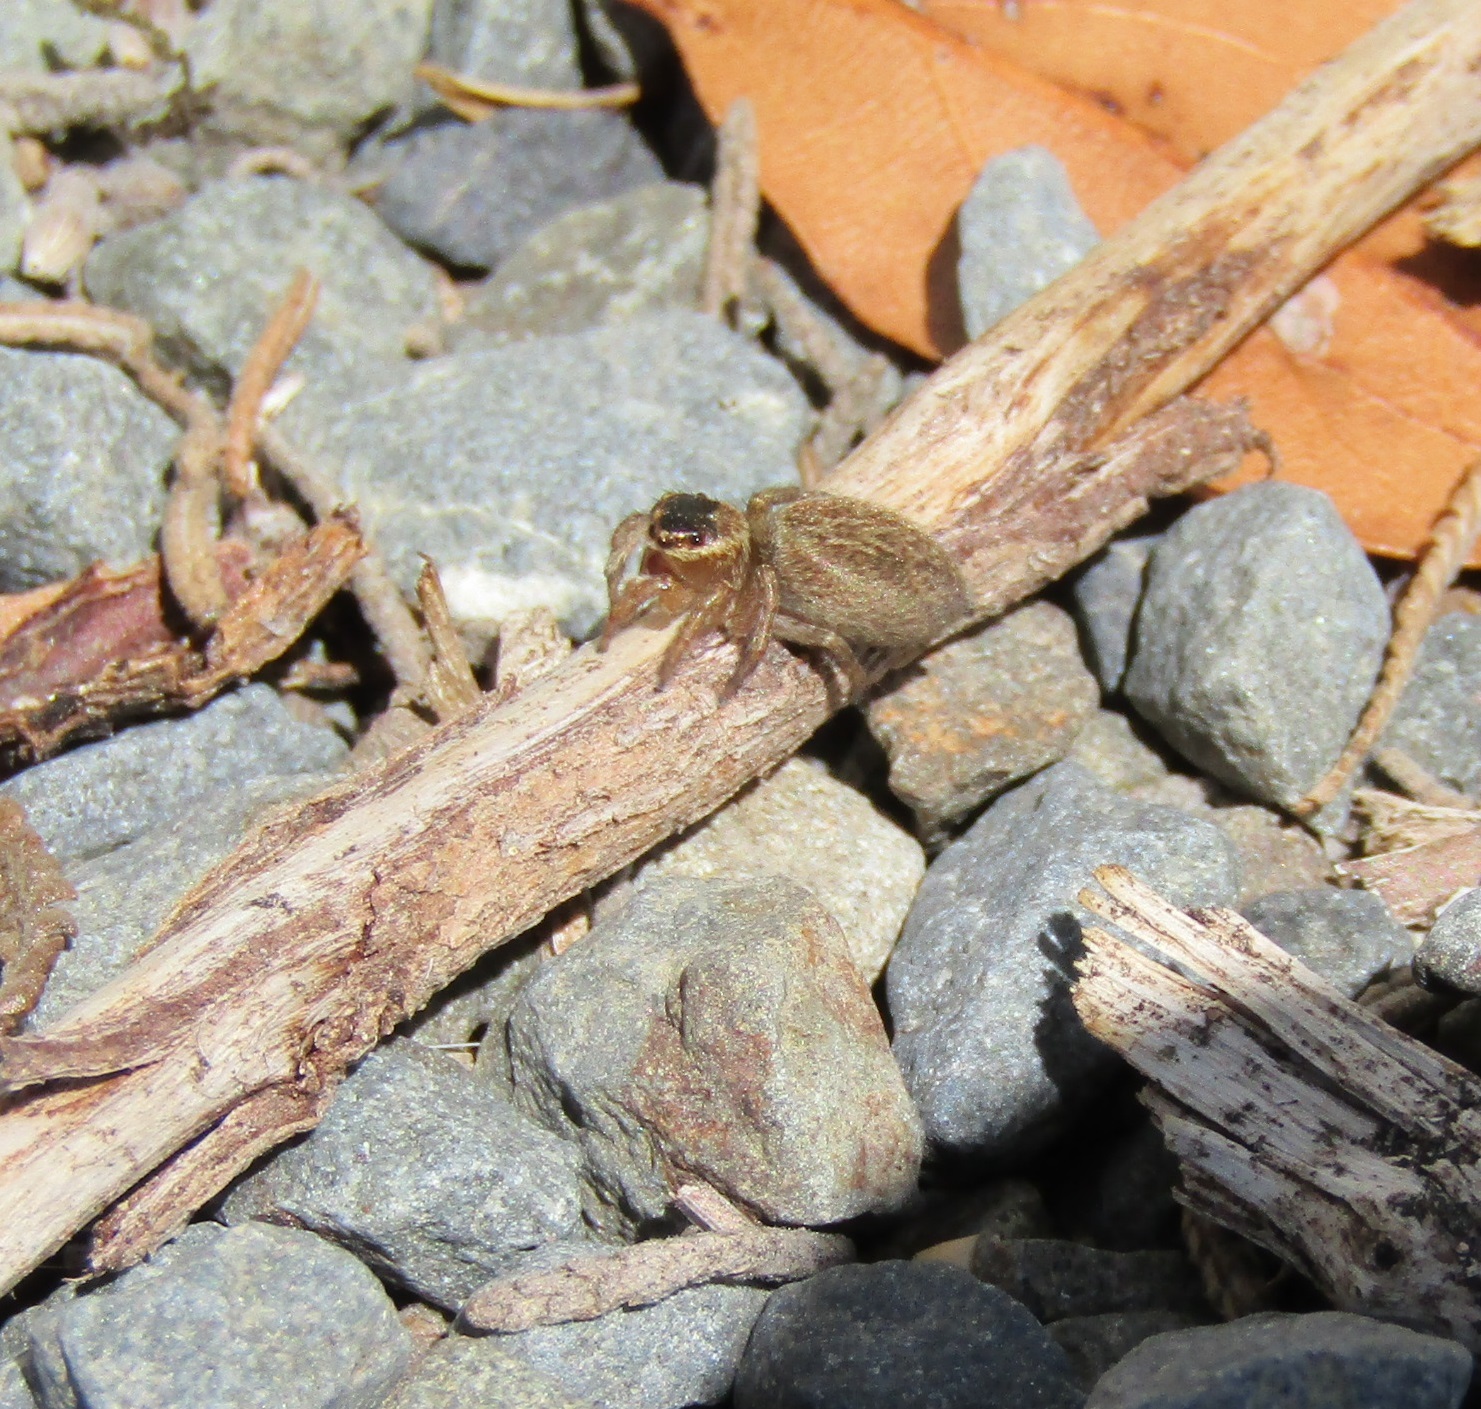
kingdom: Animalia
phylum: Arthropoda
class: Arachnida
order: Araneae
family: Salticidae
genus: Maratus
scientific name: Maratus griseus
